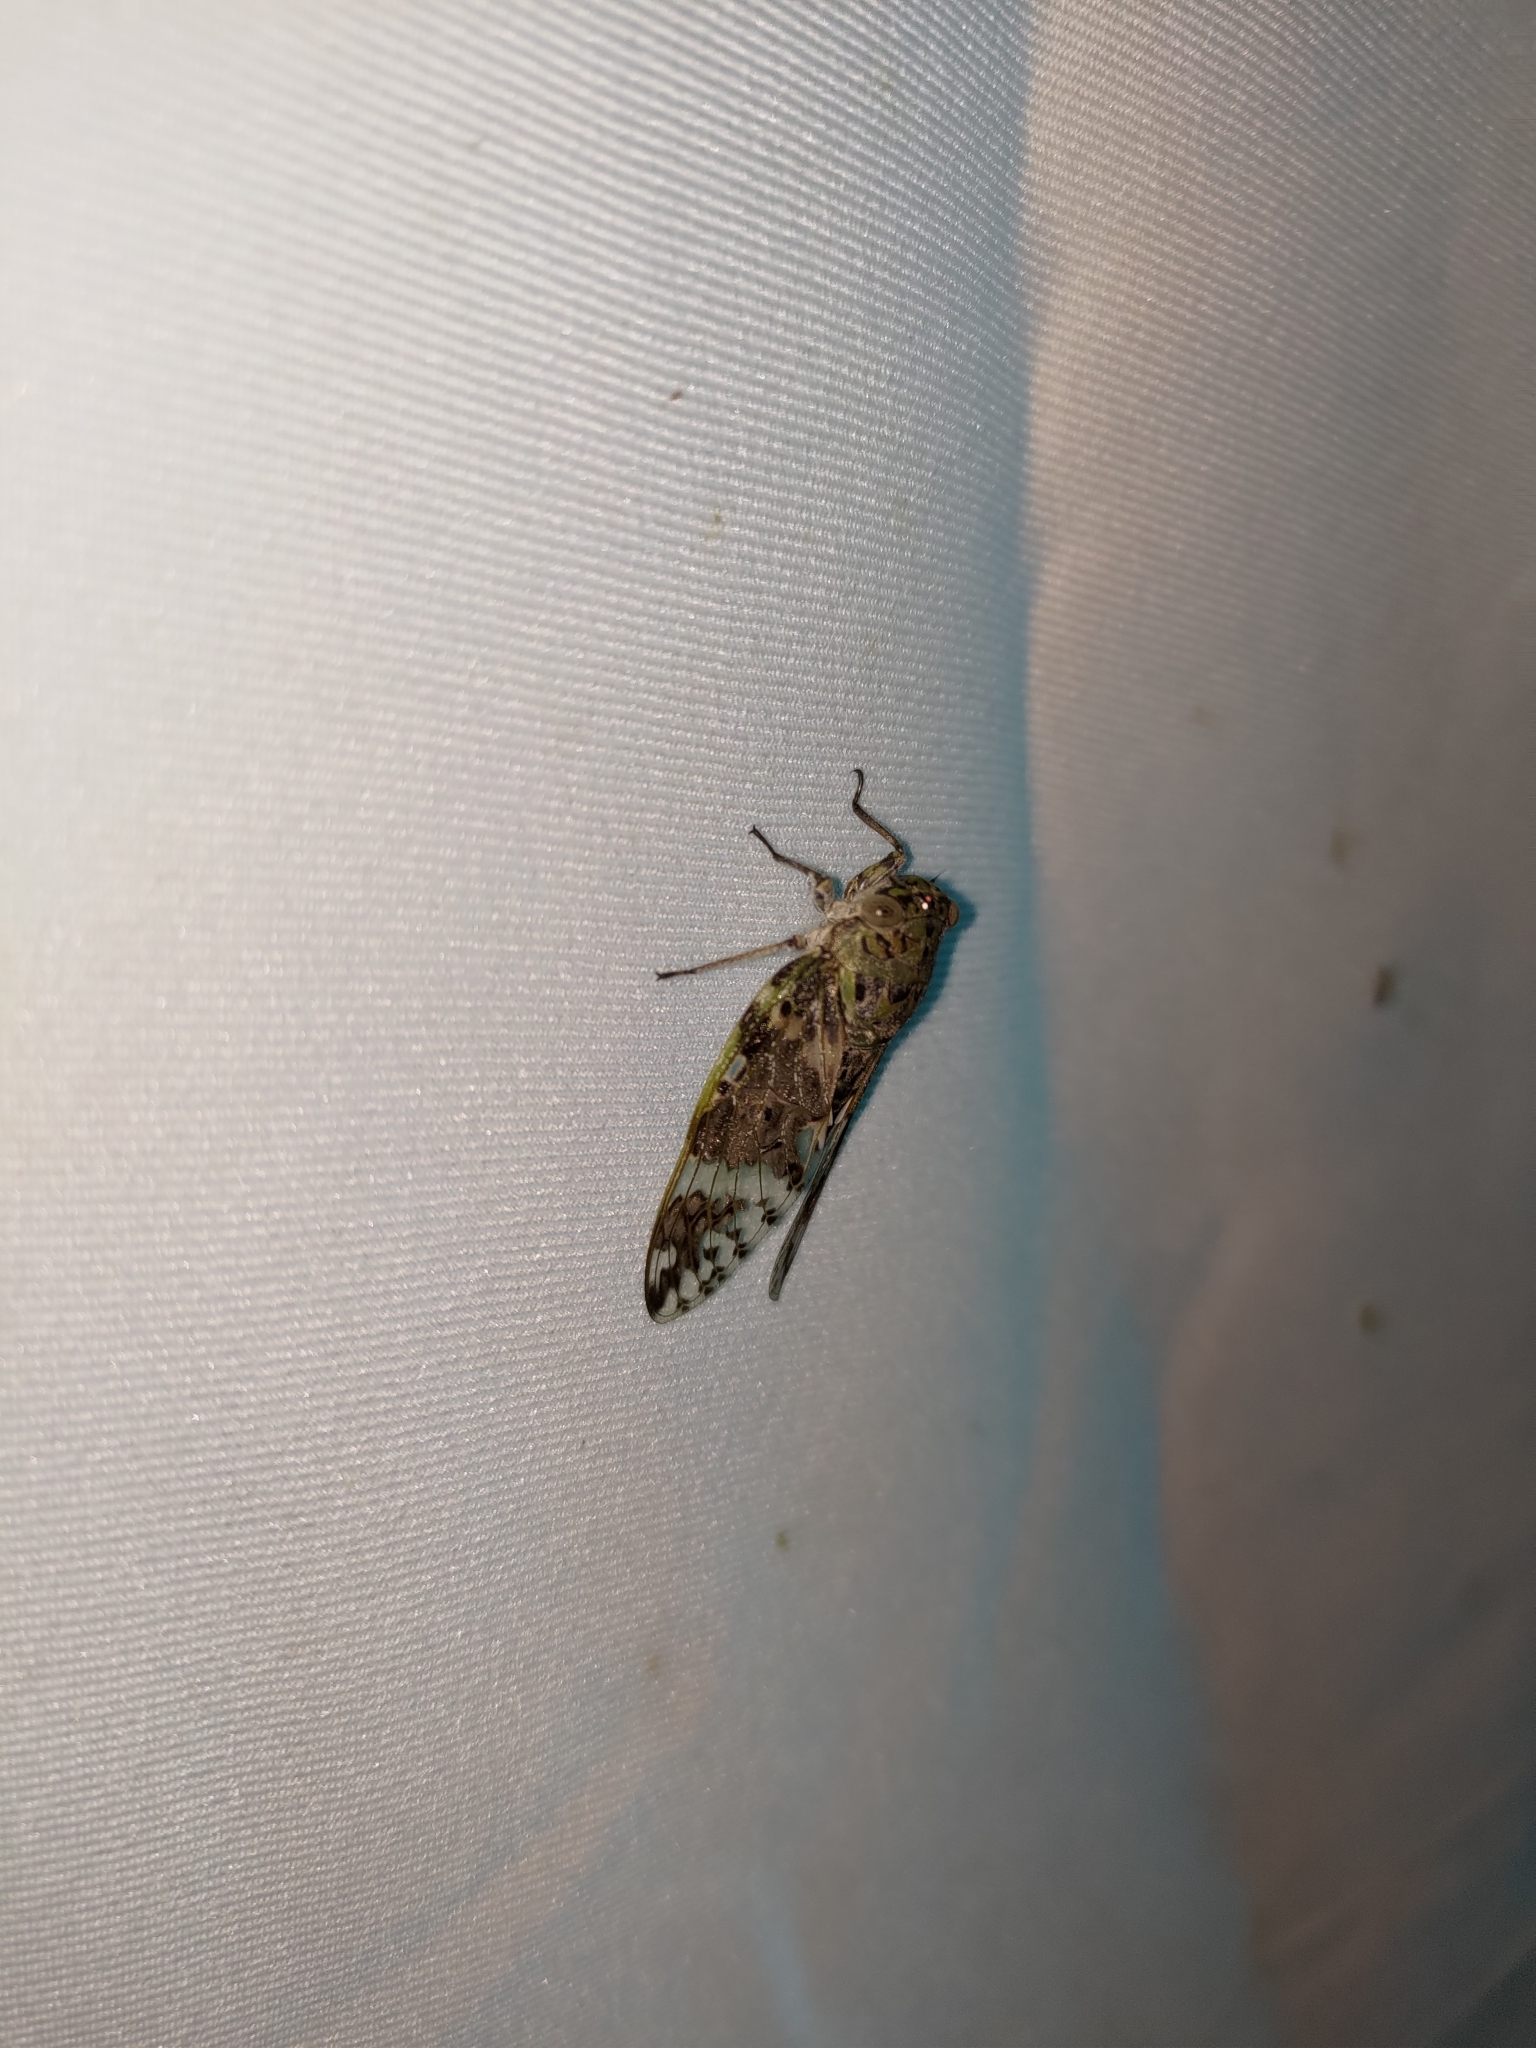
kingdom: Animalia
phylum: Arthropoda
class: Insecta
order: Hemiptera
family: Cicadidae
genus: Platypleura
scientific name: Platypleura takasagona
